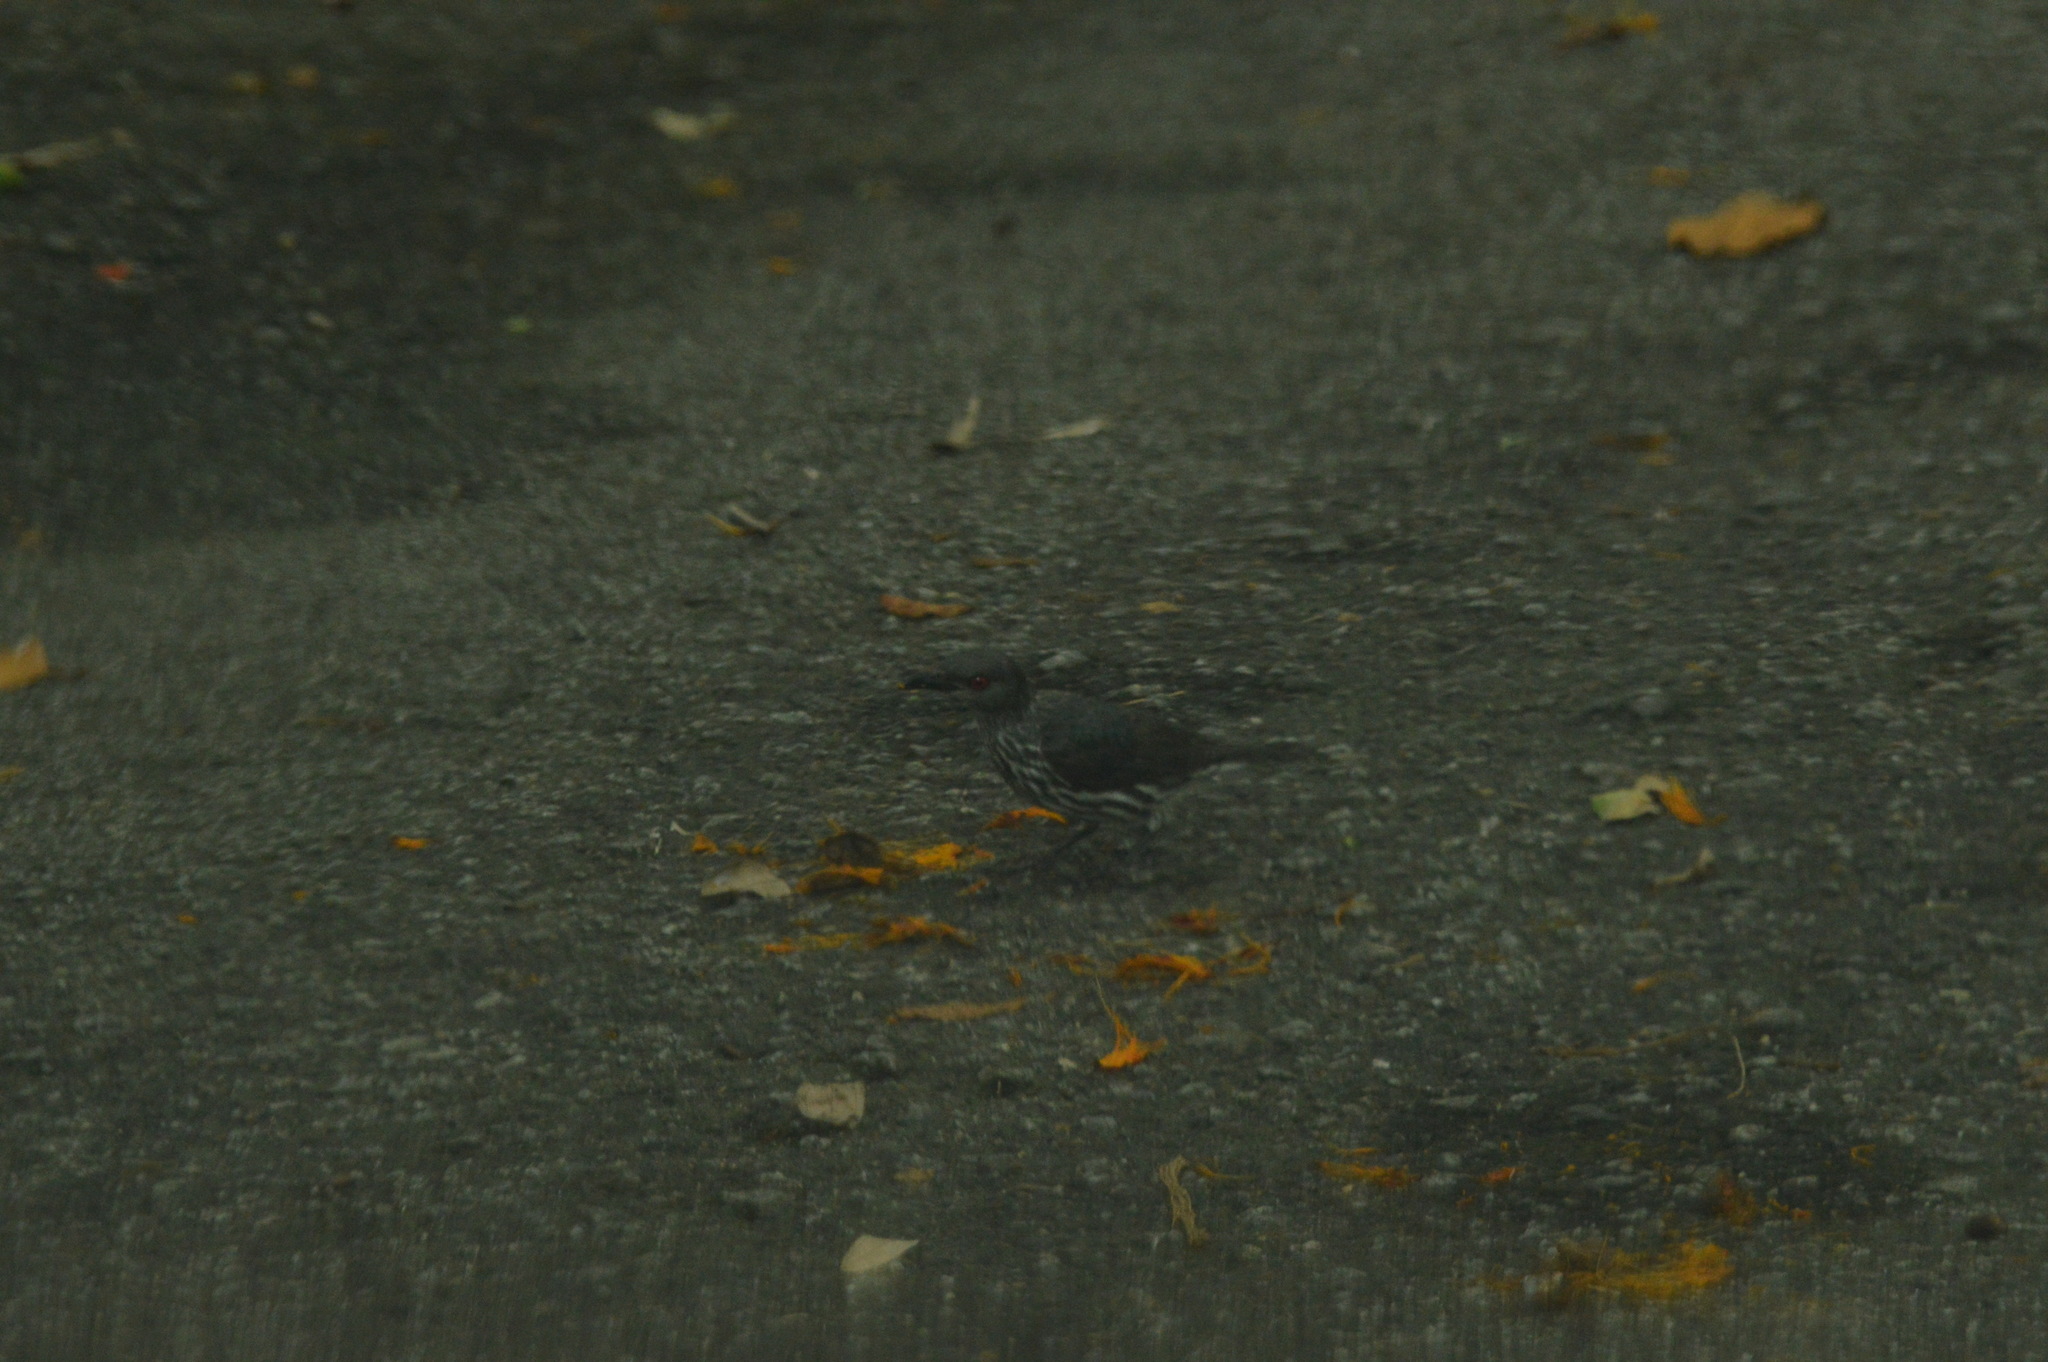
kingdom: Animalia
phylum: Chordata
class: Aves
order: Passeriformes
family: Sturnidae
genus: Aplonis
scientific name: Aplonis panayensis
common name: Asian glossy starling
